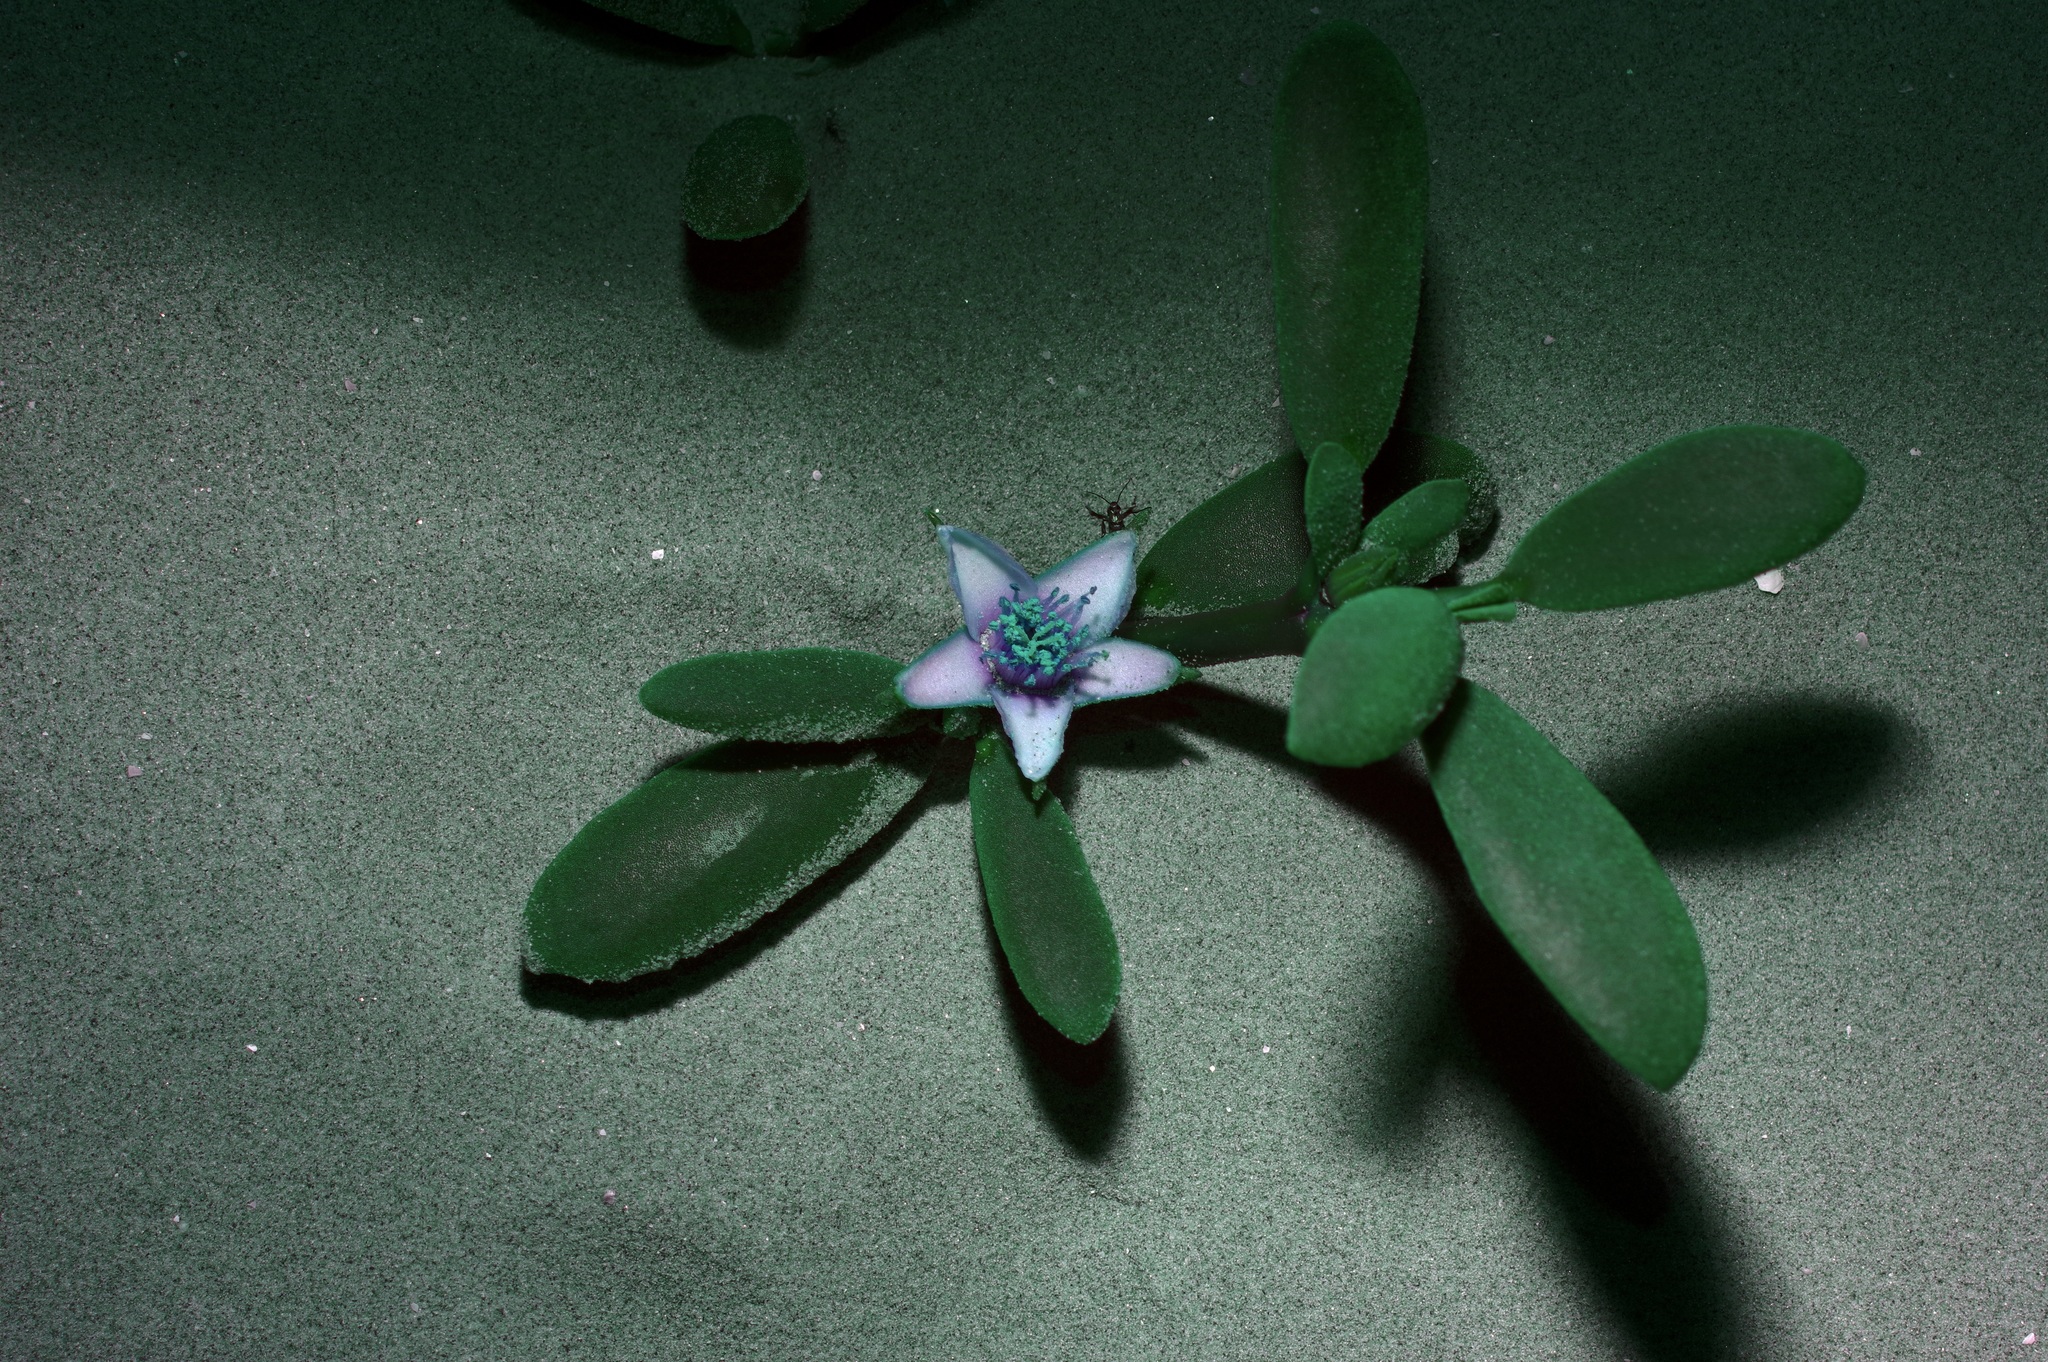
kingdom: Plantae
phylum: Tracheophyta
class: Magnoliopsida
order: Caryophyllales
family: Aizoaceae
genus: Sesuvium
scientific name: Sesuvium portulacastrum
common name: Sea-purslane
